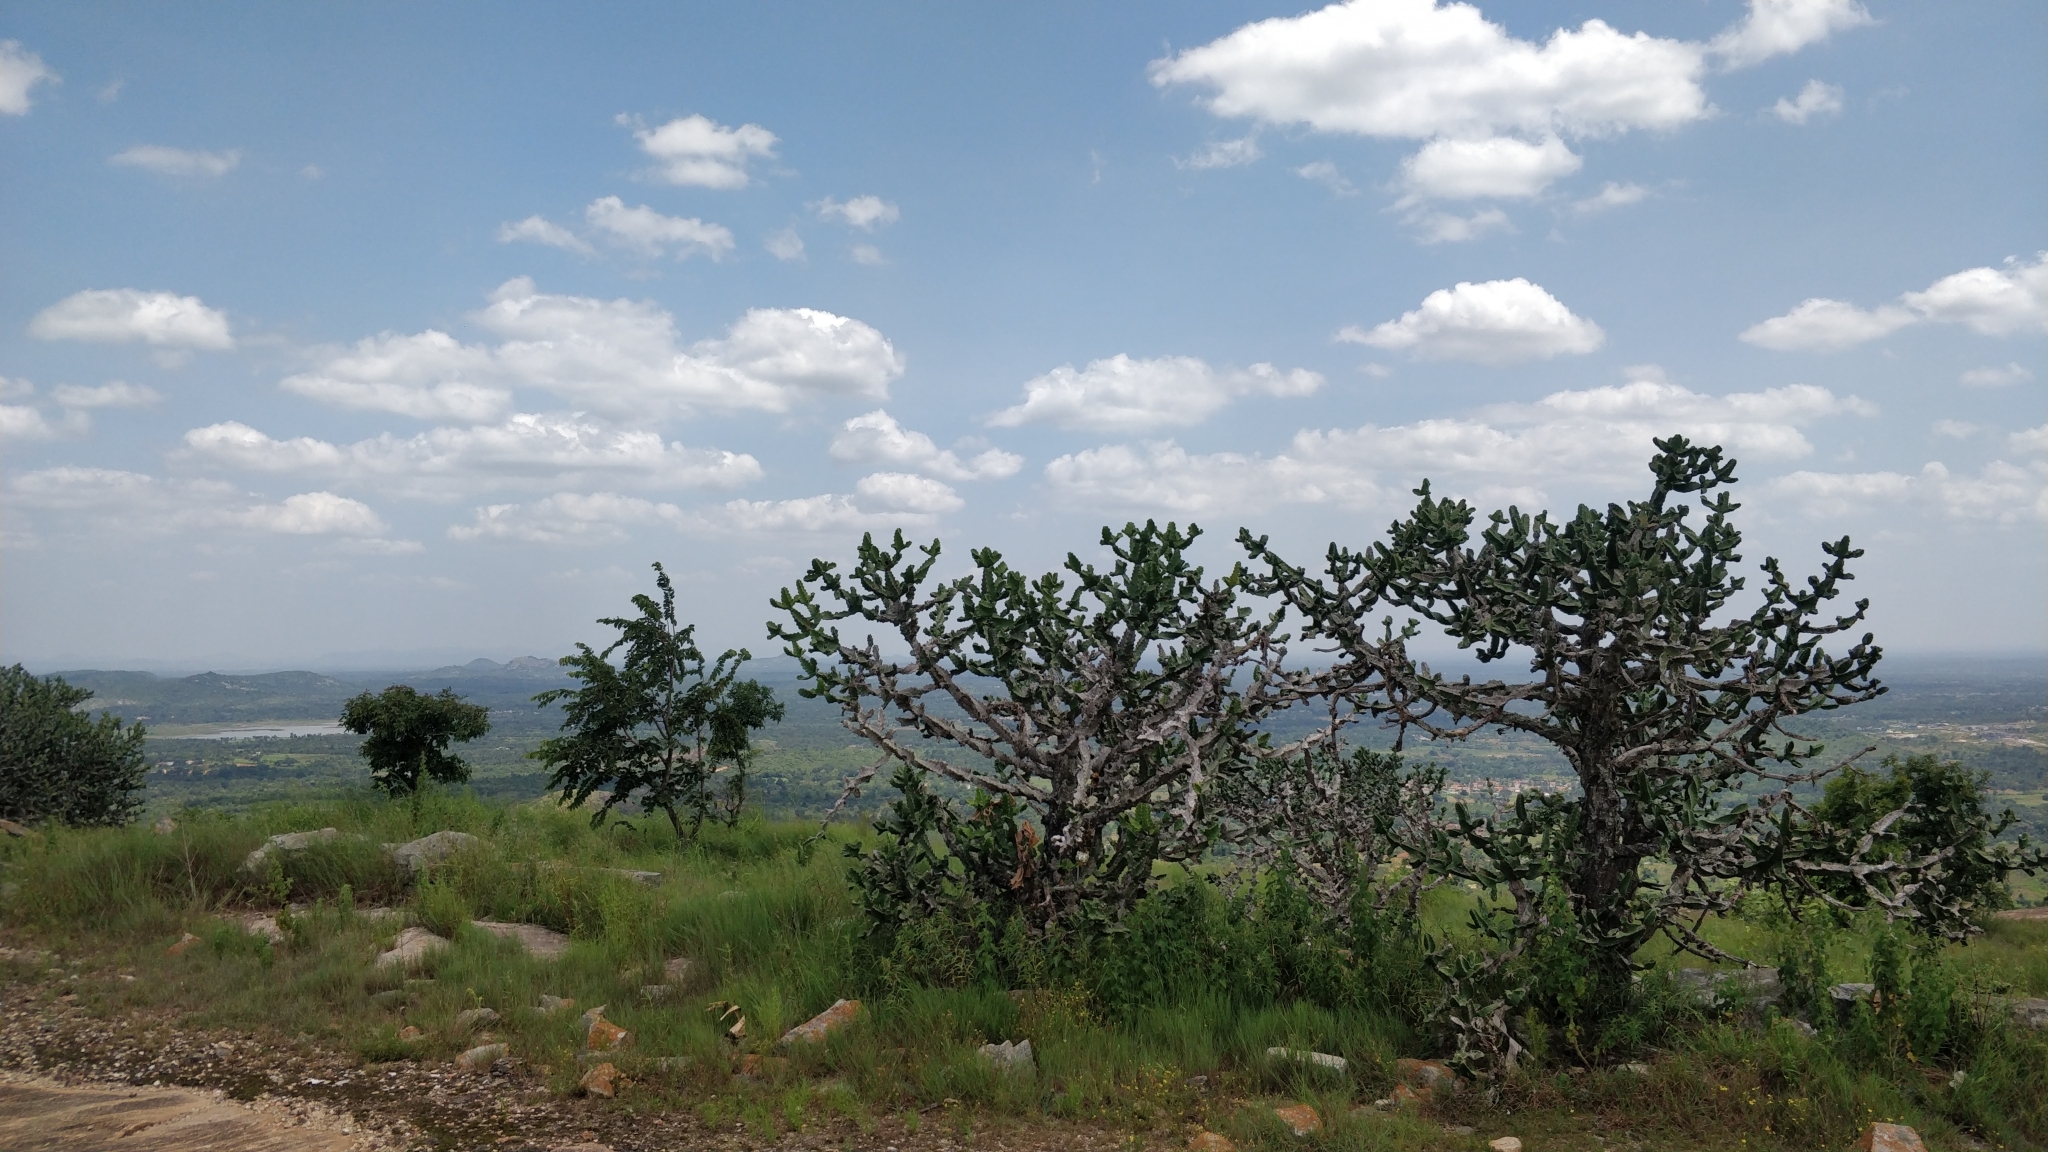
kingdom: Plantae
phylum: Tracheophyta
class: Magnoliopsida
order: Malpighiales
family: Euphorbiaceae
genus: Euphorbia
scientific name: Euphorbia antiquorum
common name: Malayan spurge tree
